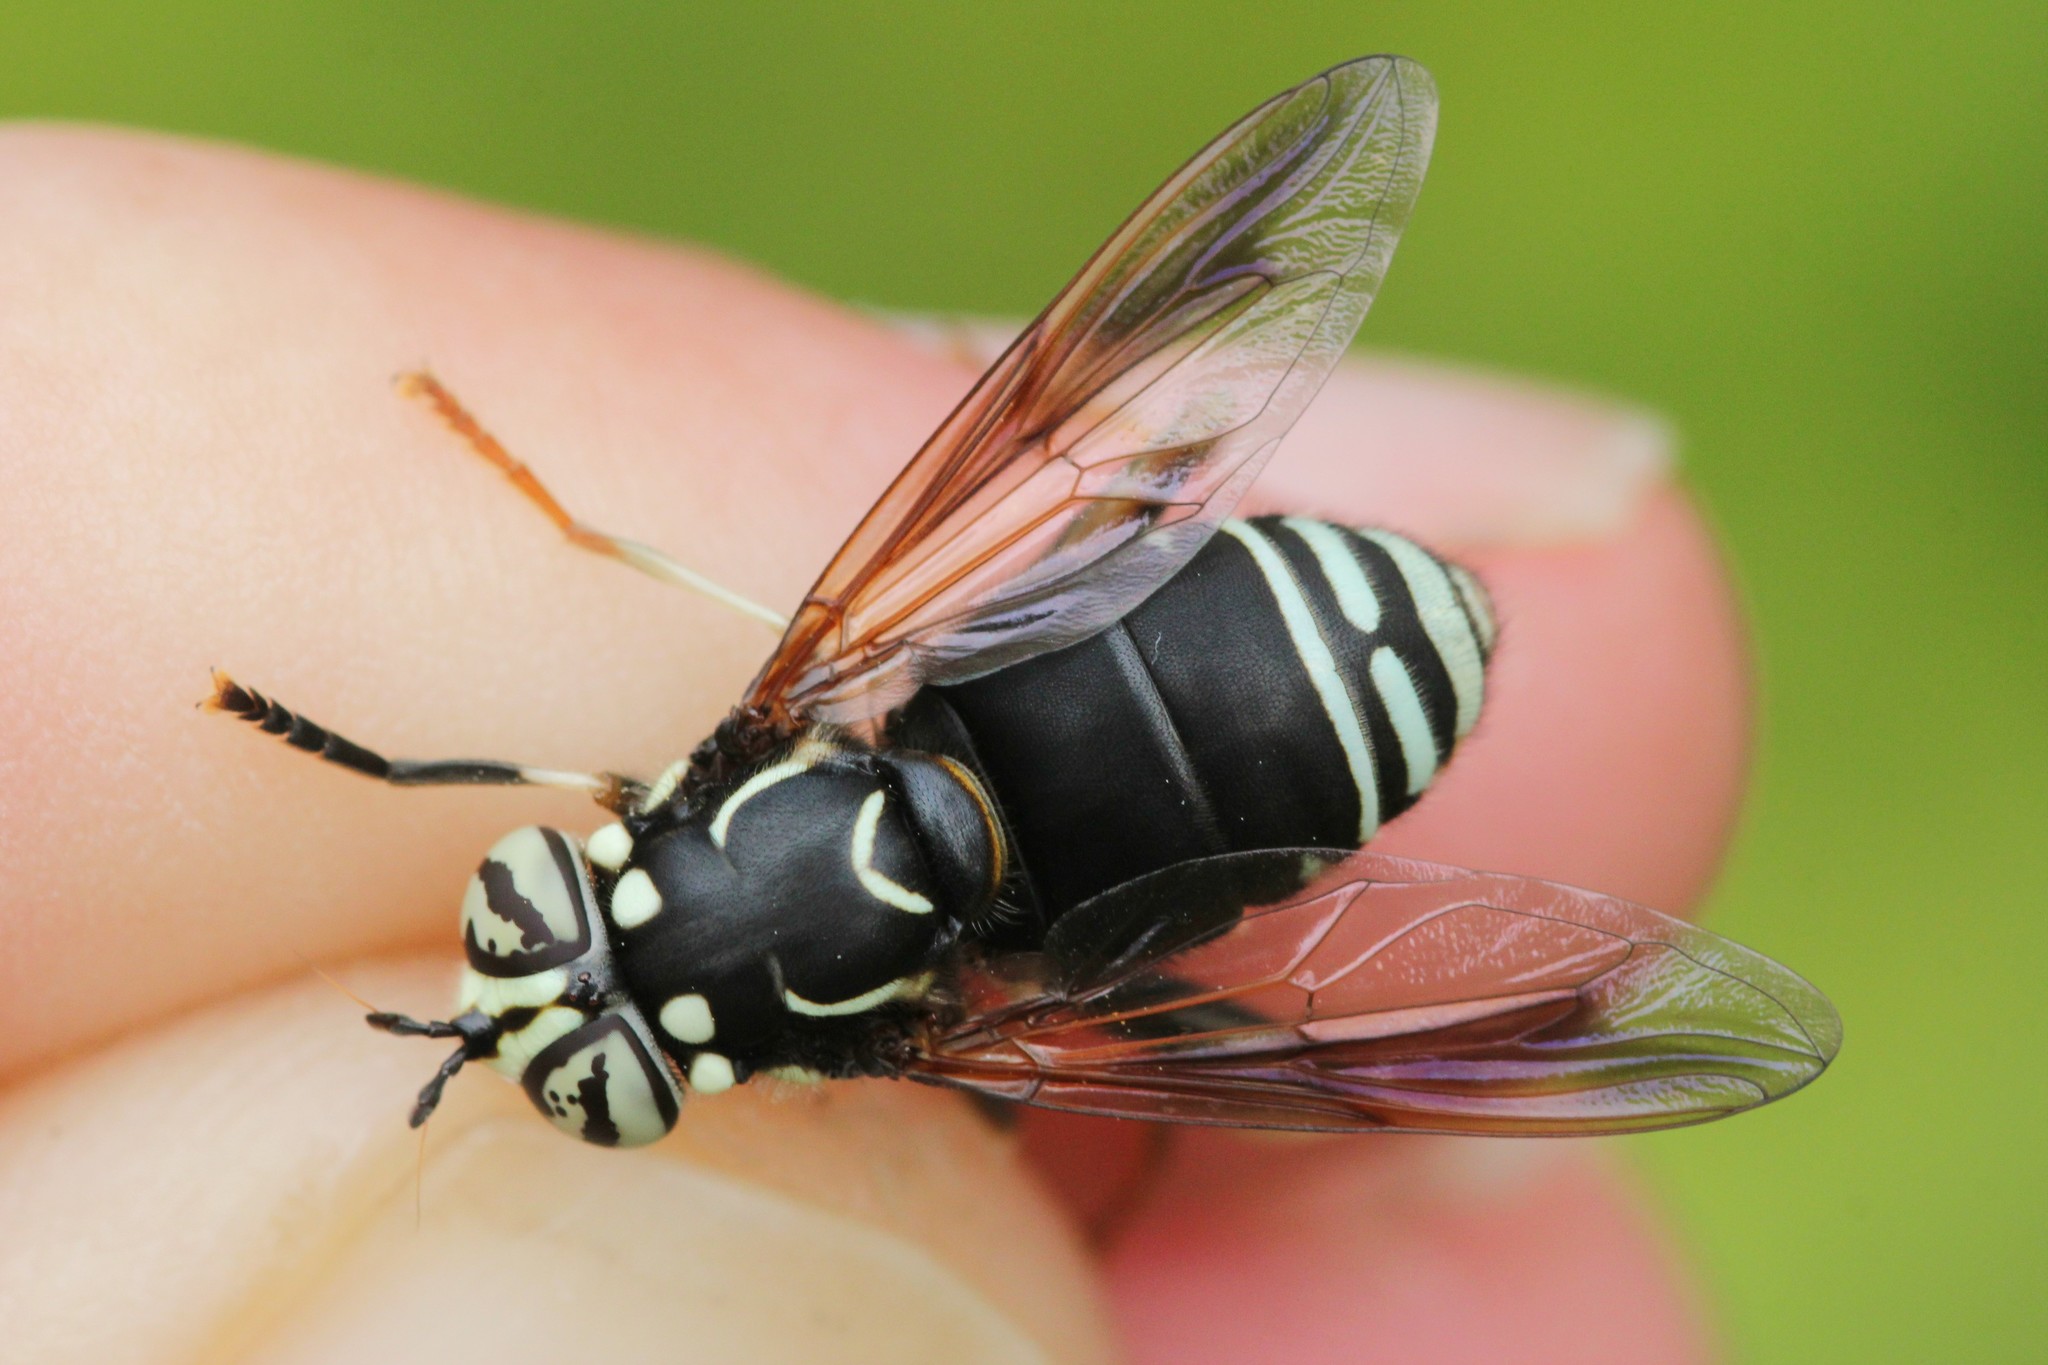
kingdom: Animalia
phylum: Arthropoda
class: Insecta
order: Diptera
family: Syrphidae
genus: Spilomyia
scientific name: Spilomyia fusca
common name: Bald-faced hornet fly
